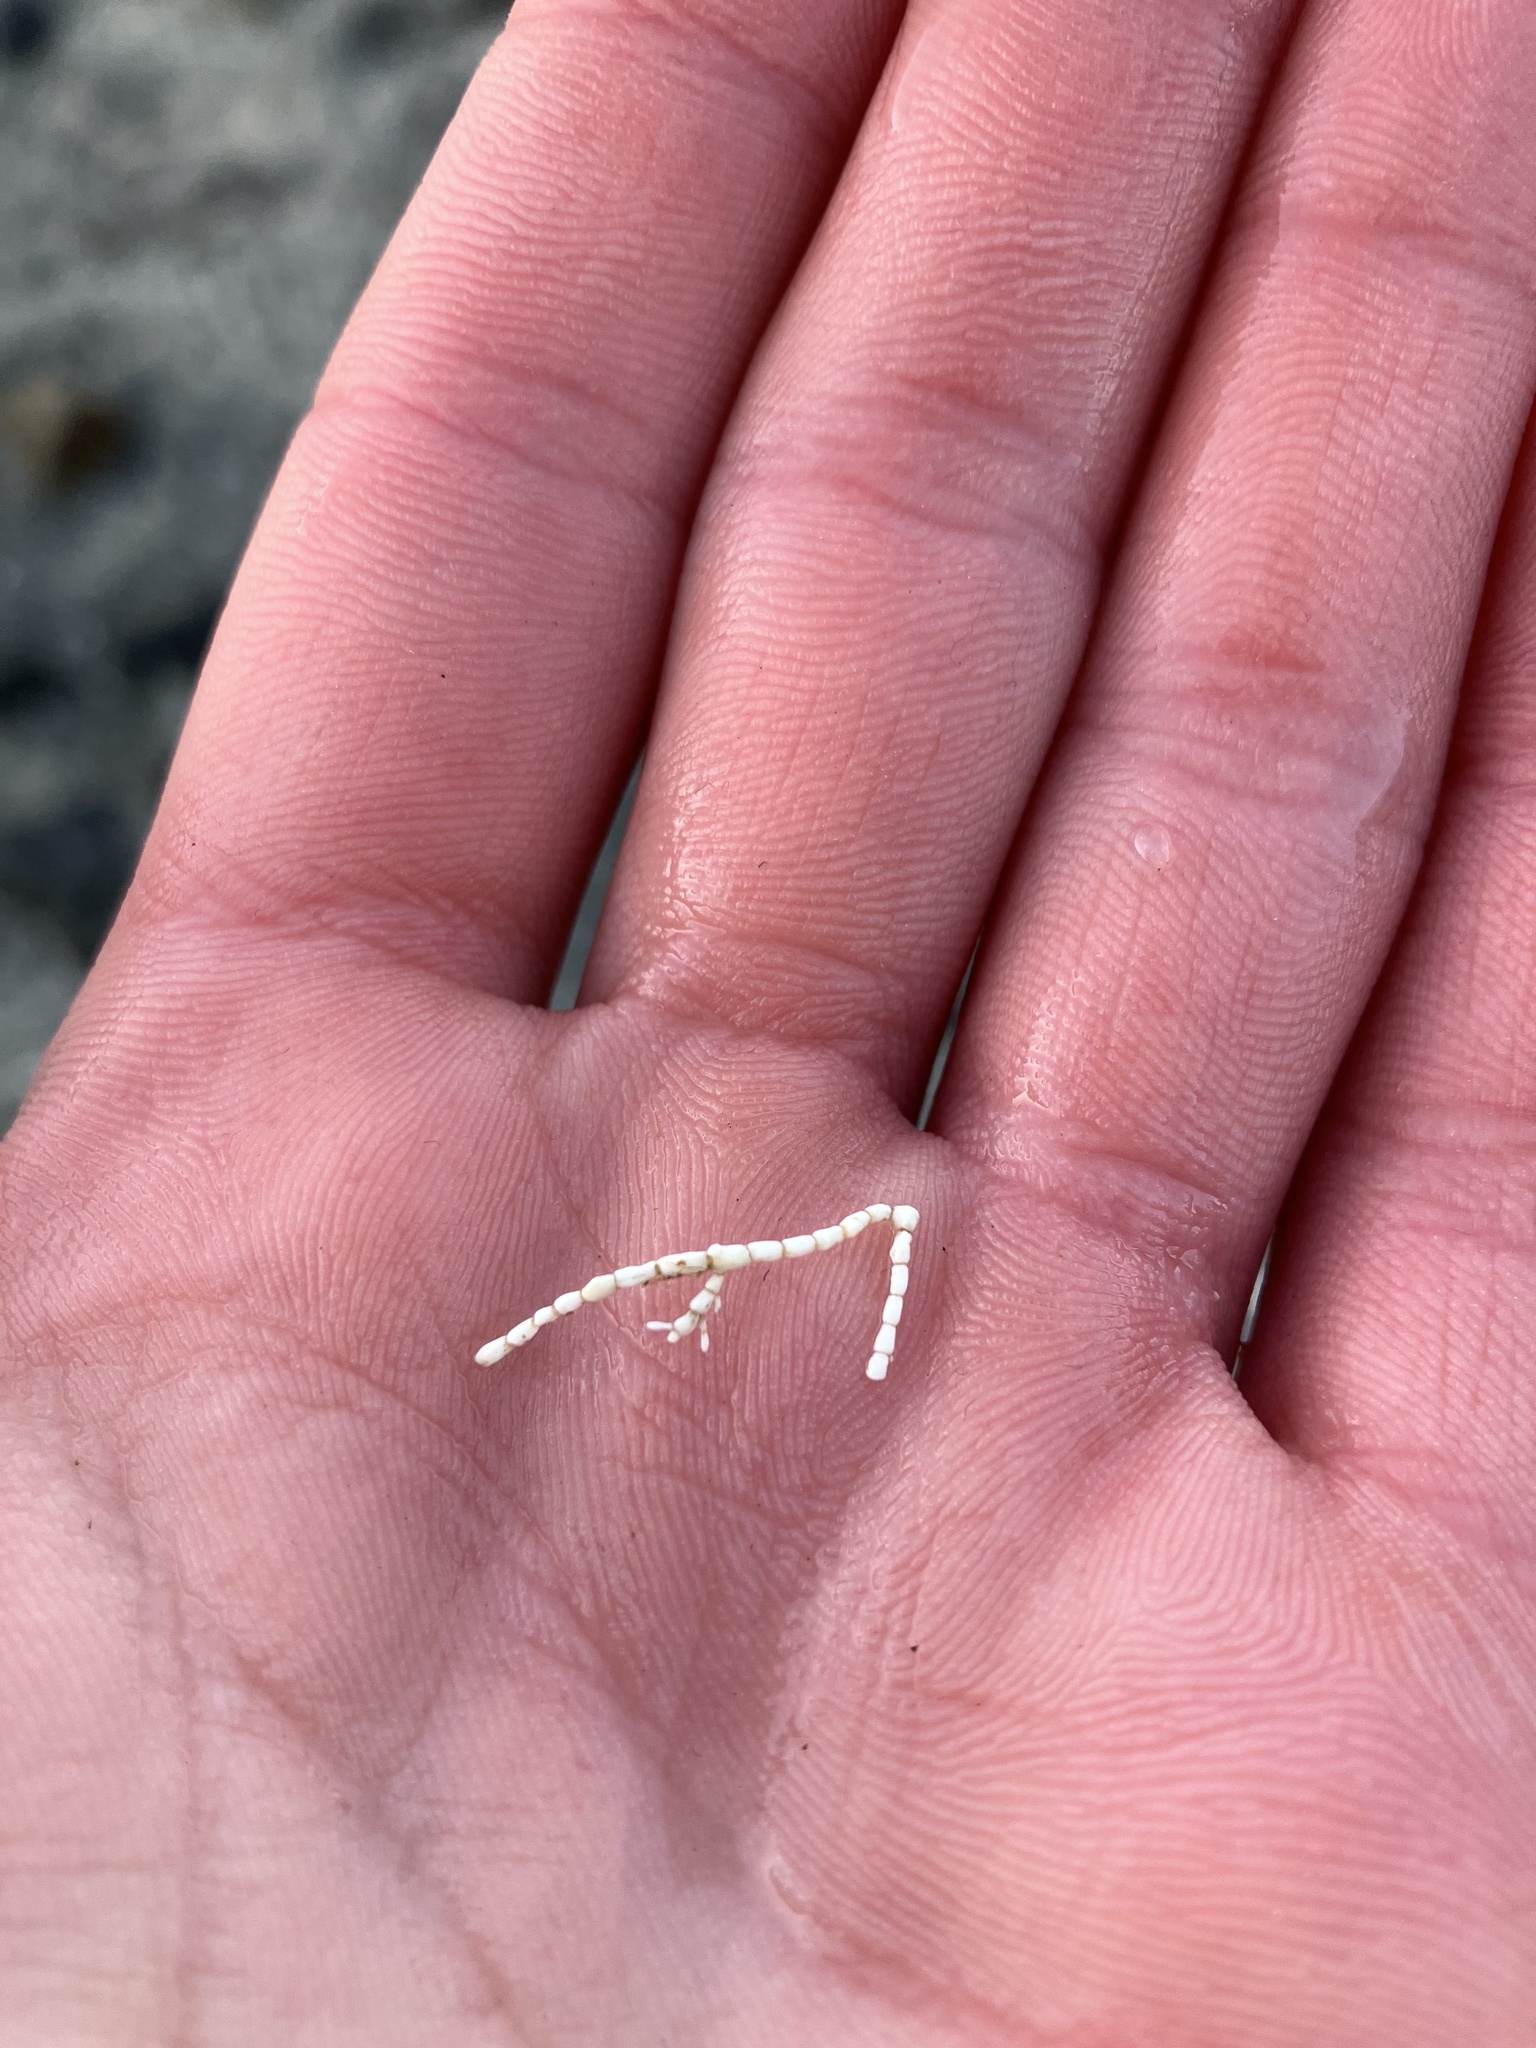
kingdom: Plantae
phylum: Rhodophyta
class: Florideophyceae
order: Corallinales
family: Corallinaceae
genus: Corallina
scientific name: Corallina officinalis
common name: Coral weed
